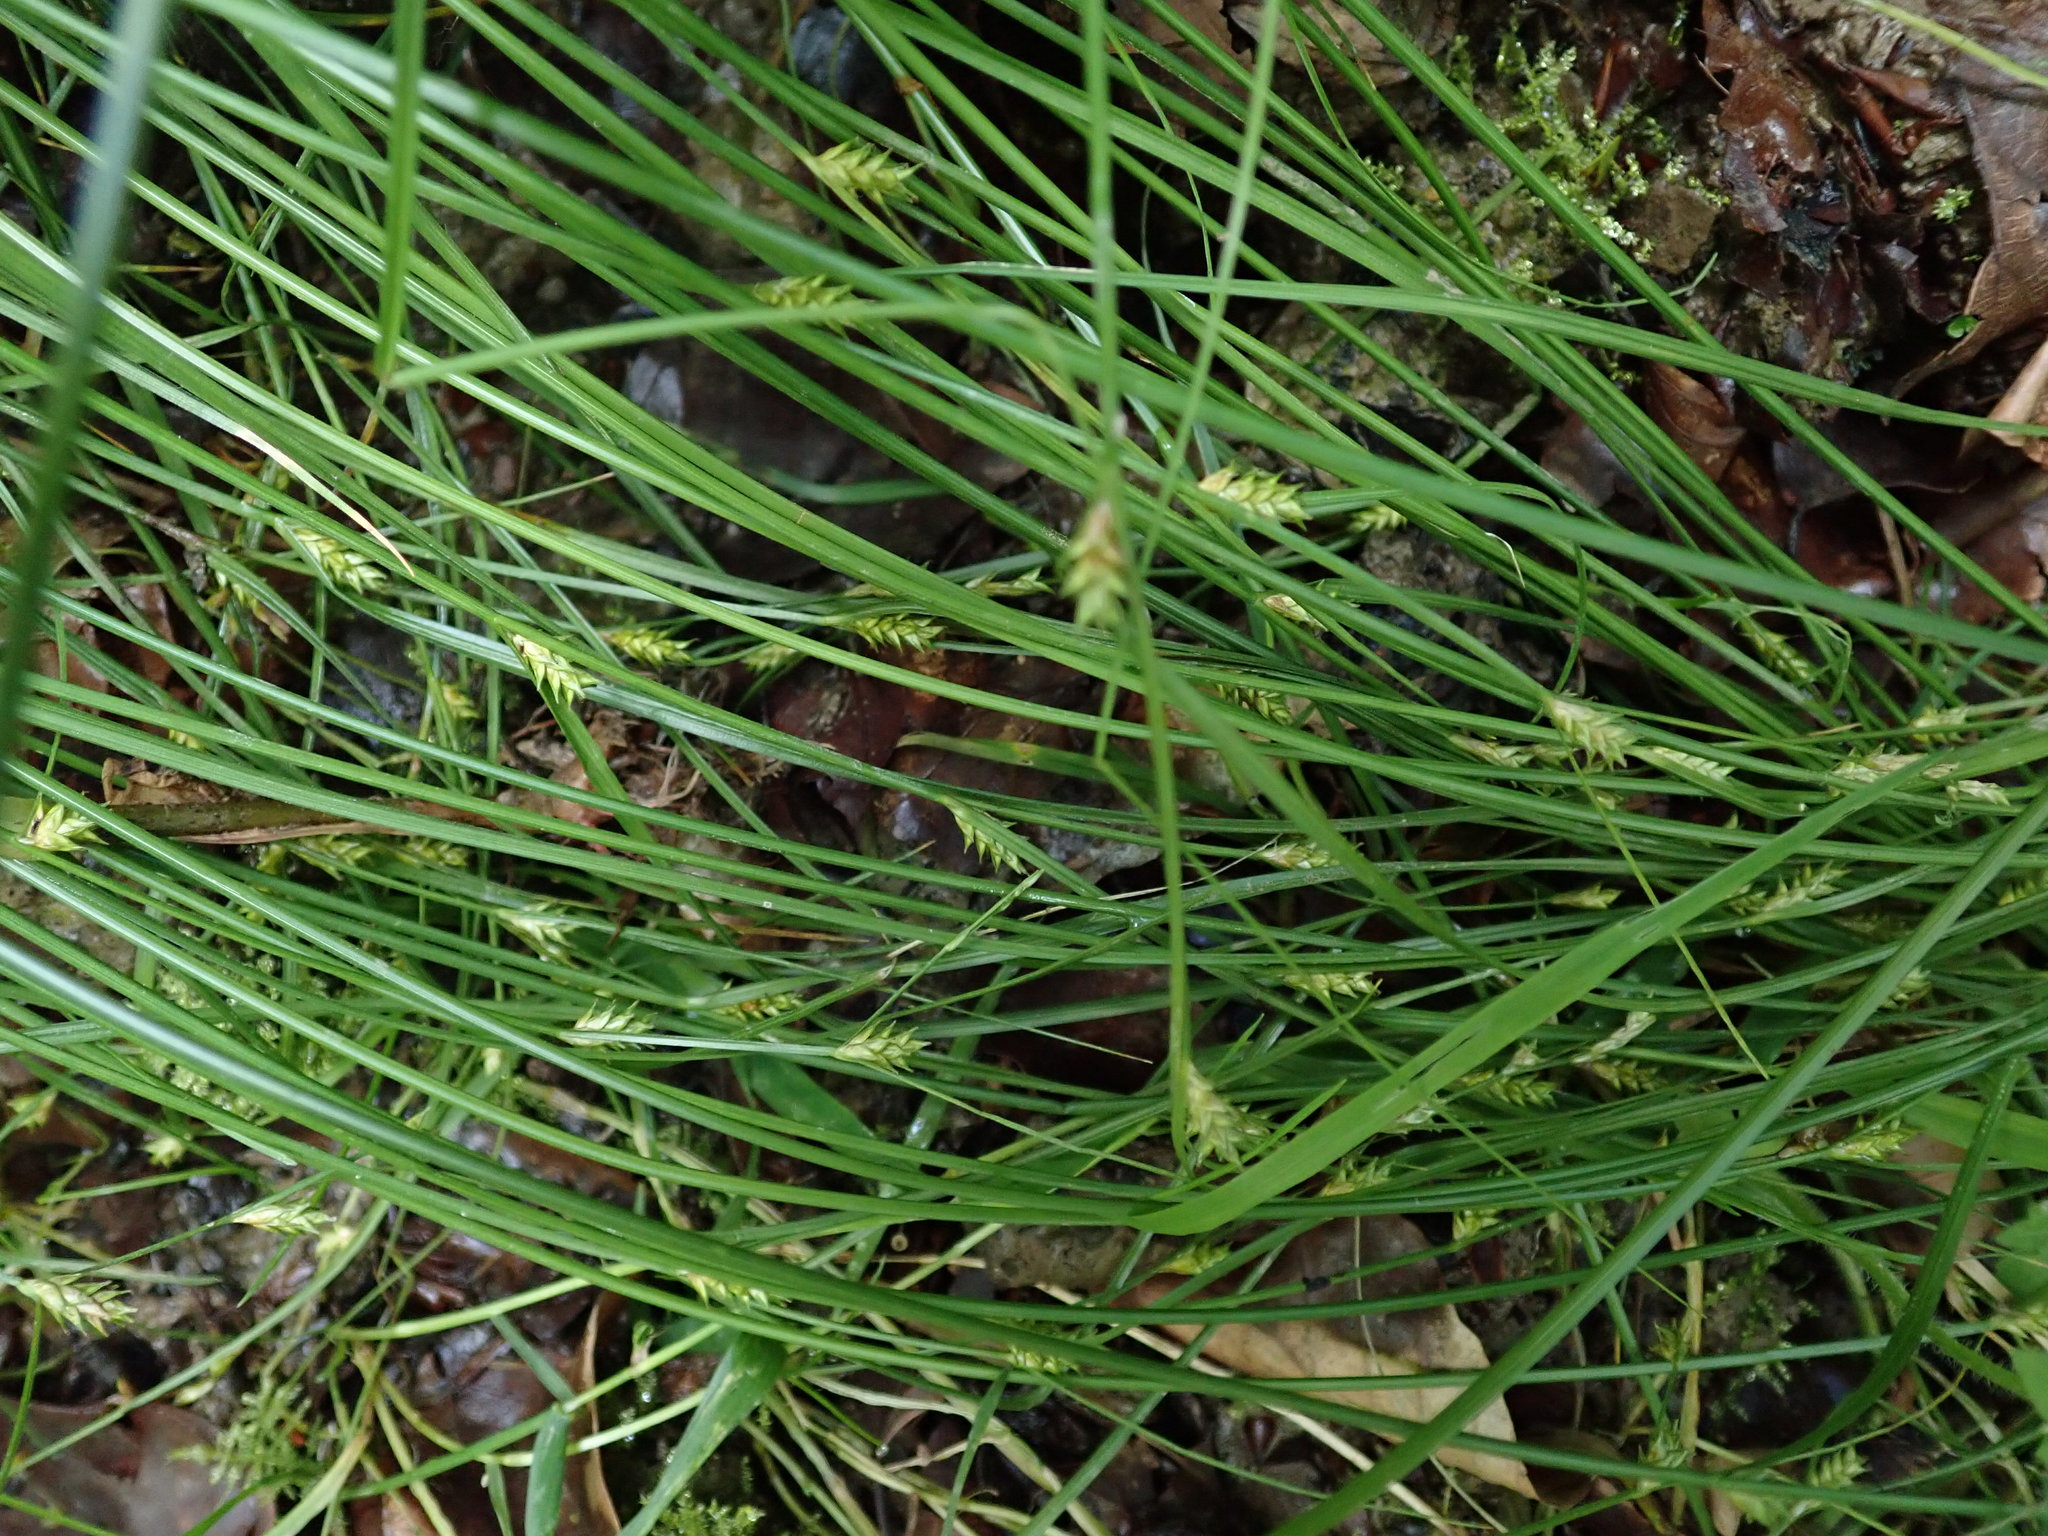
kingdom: Plantae
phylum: Tracheophyta
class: Liliopsida
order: Poales
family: Cyperaceae
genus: Carex
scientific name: Carex remota
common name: Remote sedge
